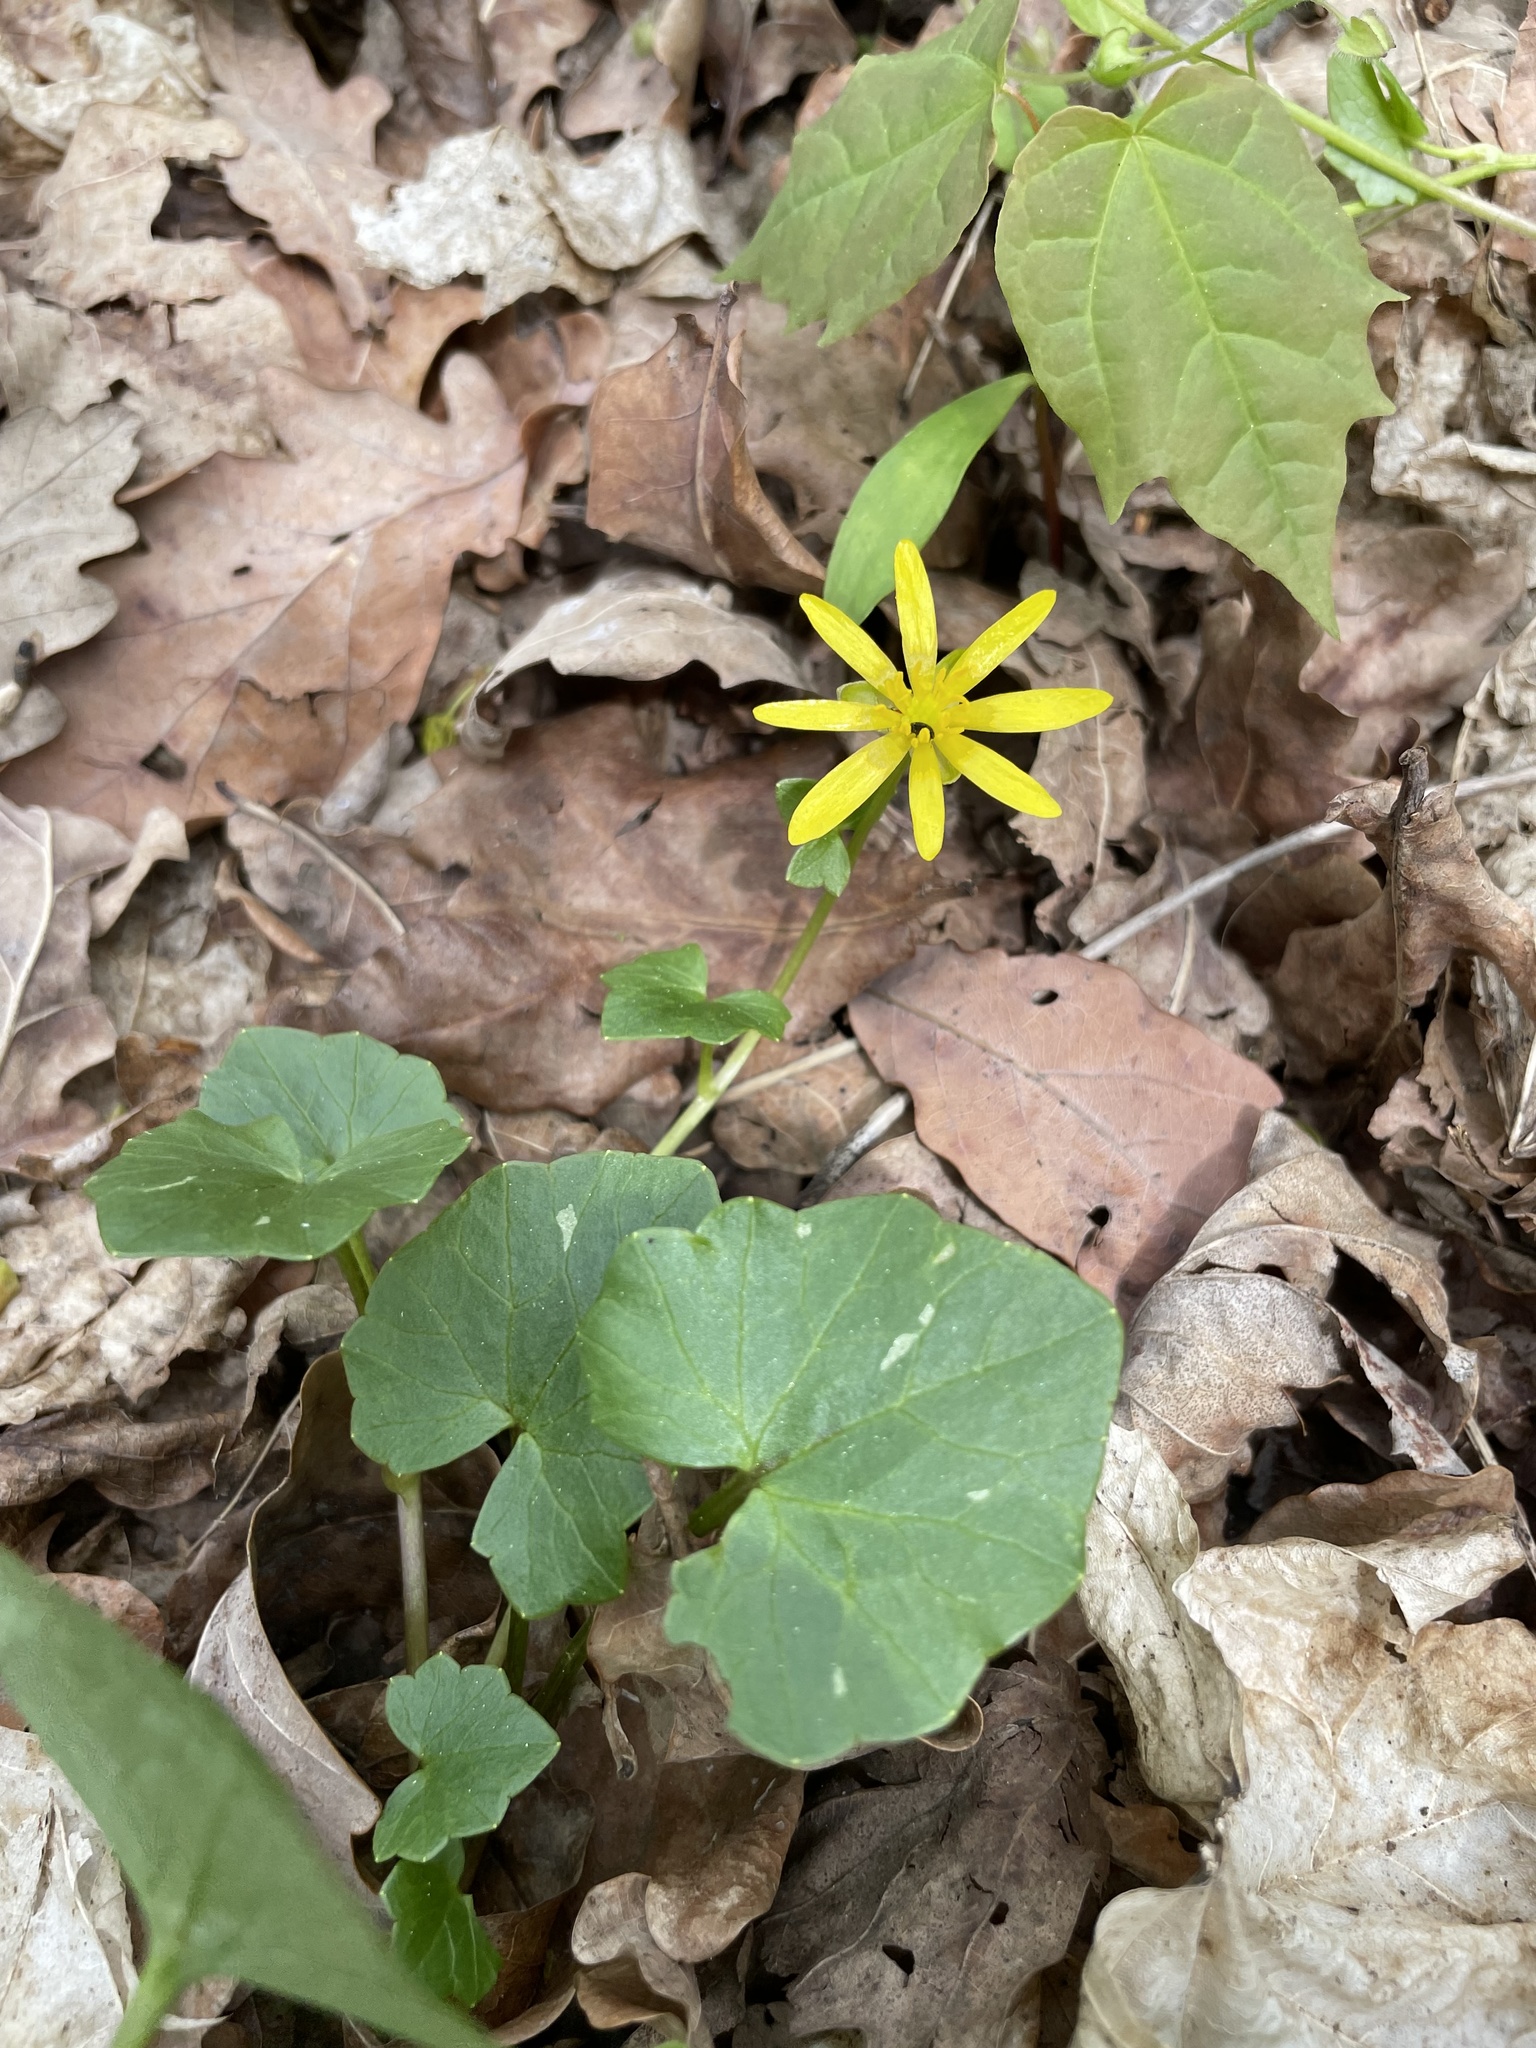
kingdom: Plantae
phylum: Tracheophyta
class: Magnoliopsida
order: Ranunculales
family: Ranunculaceae
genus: Ficaria
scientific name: Ficaria verna
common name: Lesser celandine
